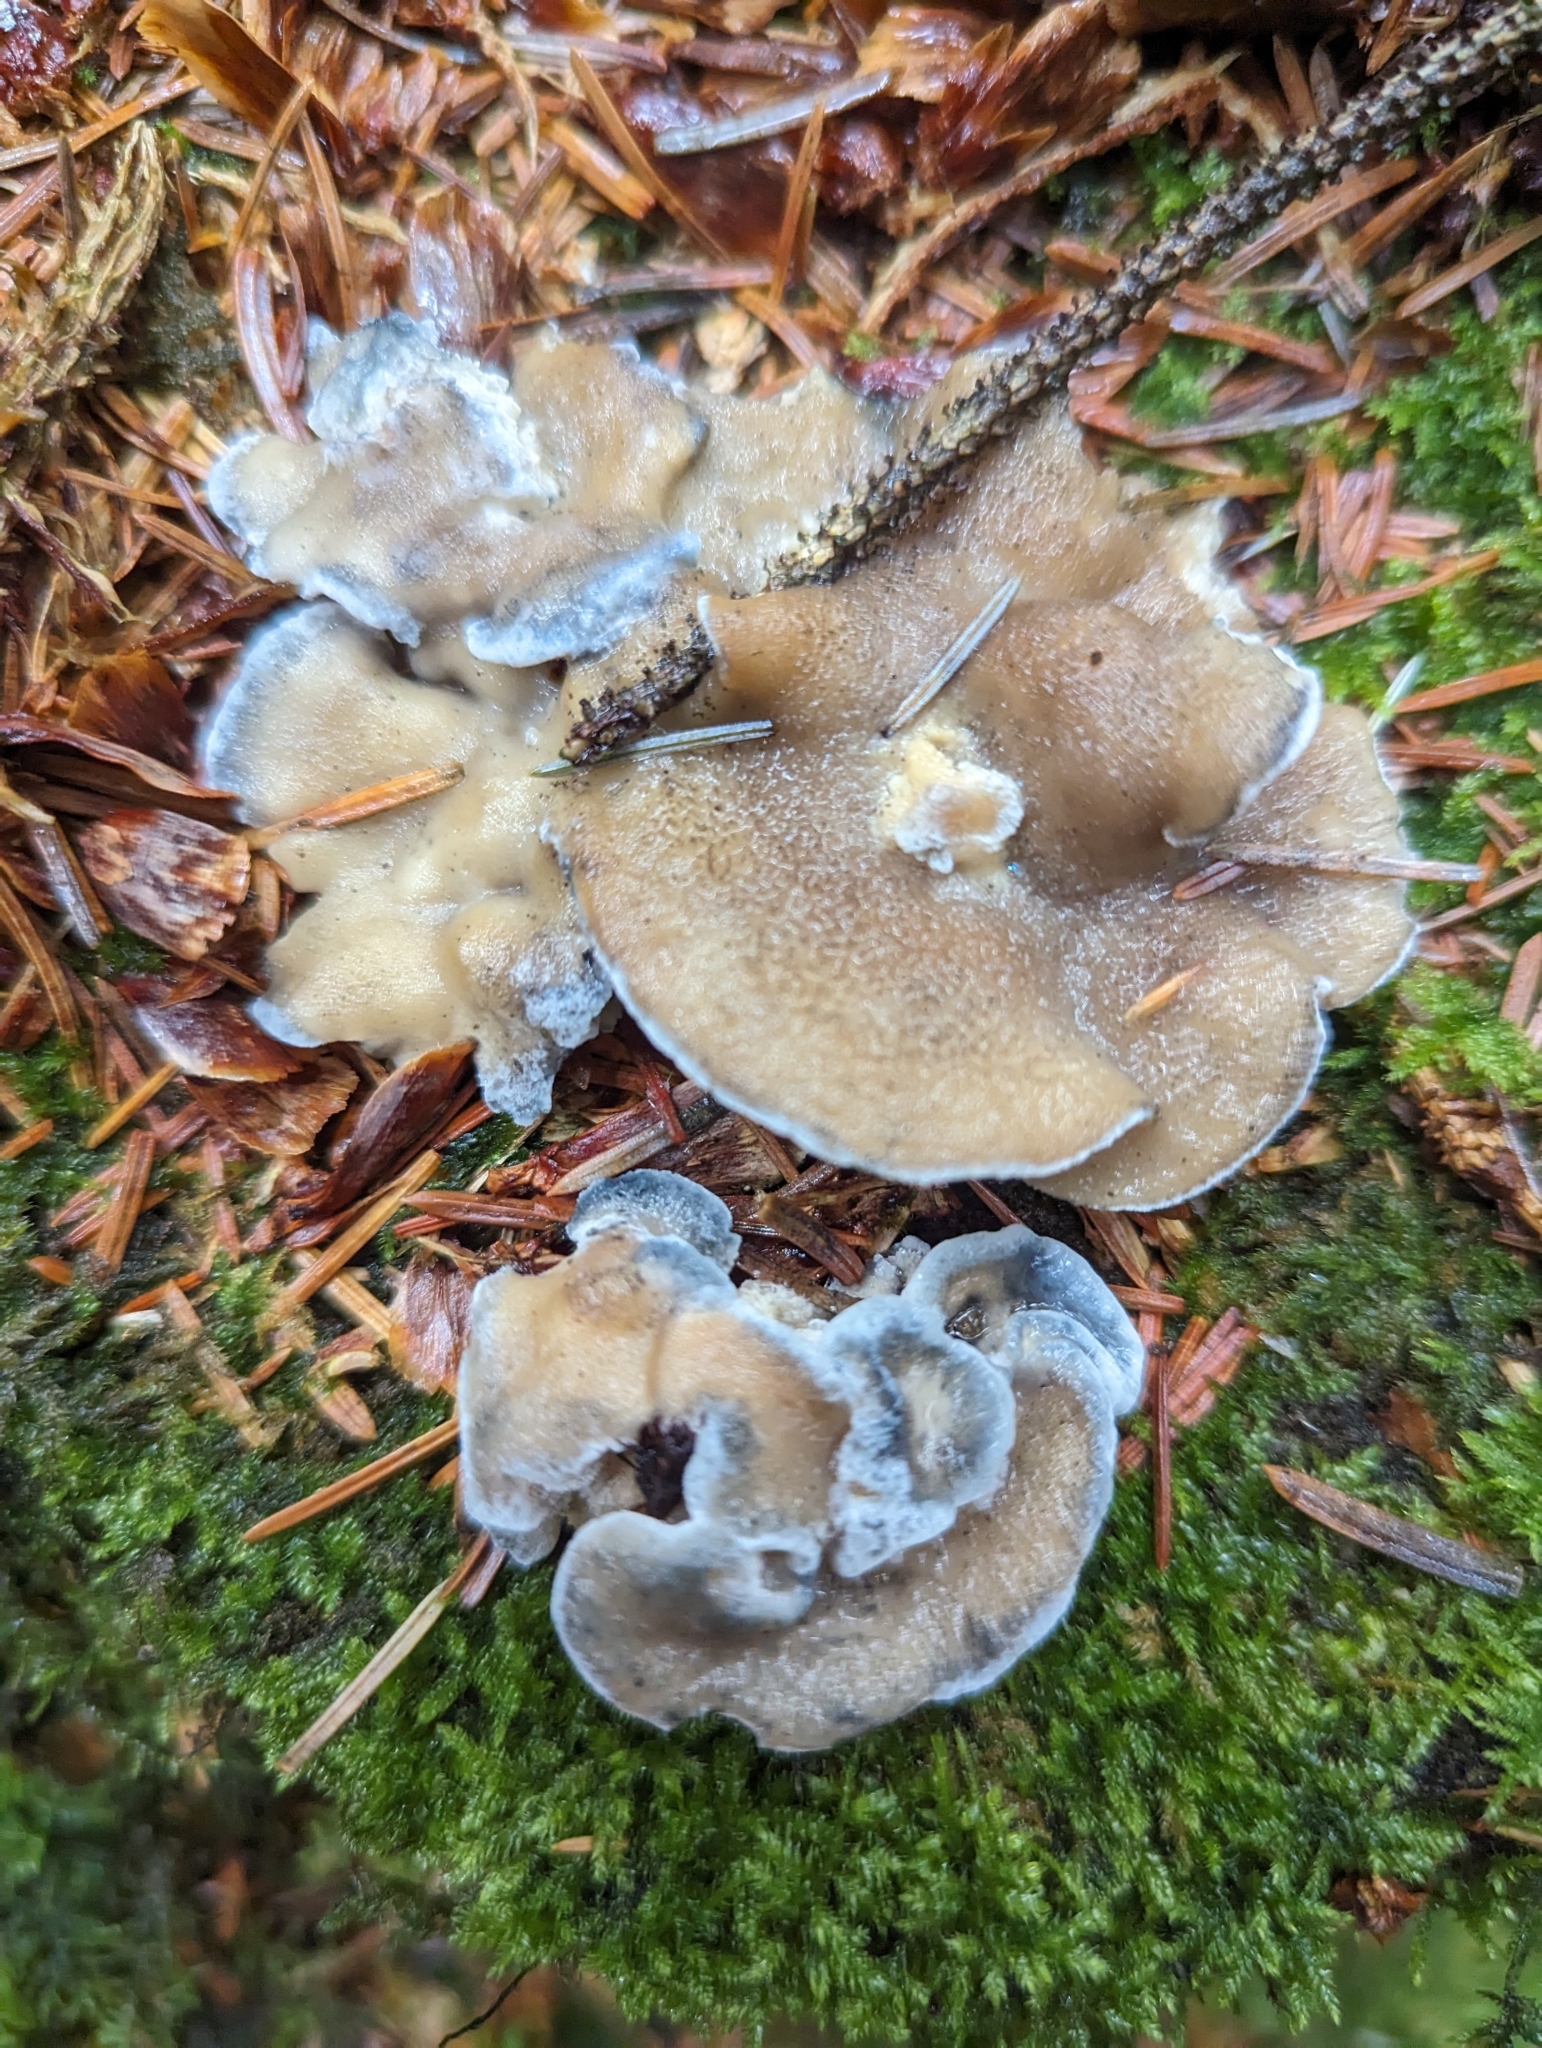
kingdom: Fungi
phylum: Basidiomycota
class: Agaricomycetes
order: Polyporales
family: Polyporaceae
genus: Cyanosporus
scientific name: Cyanosporus caesius
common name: Blue cheese polypore
